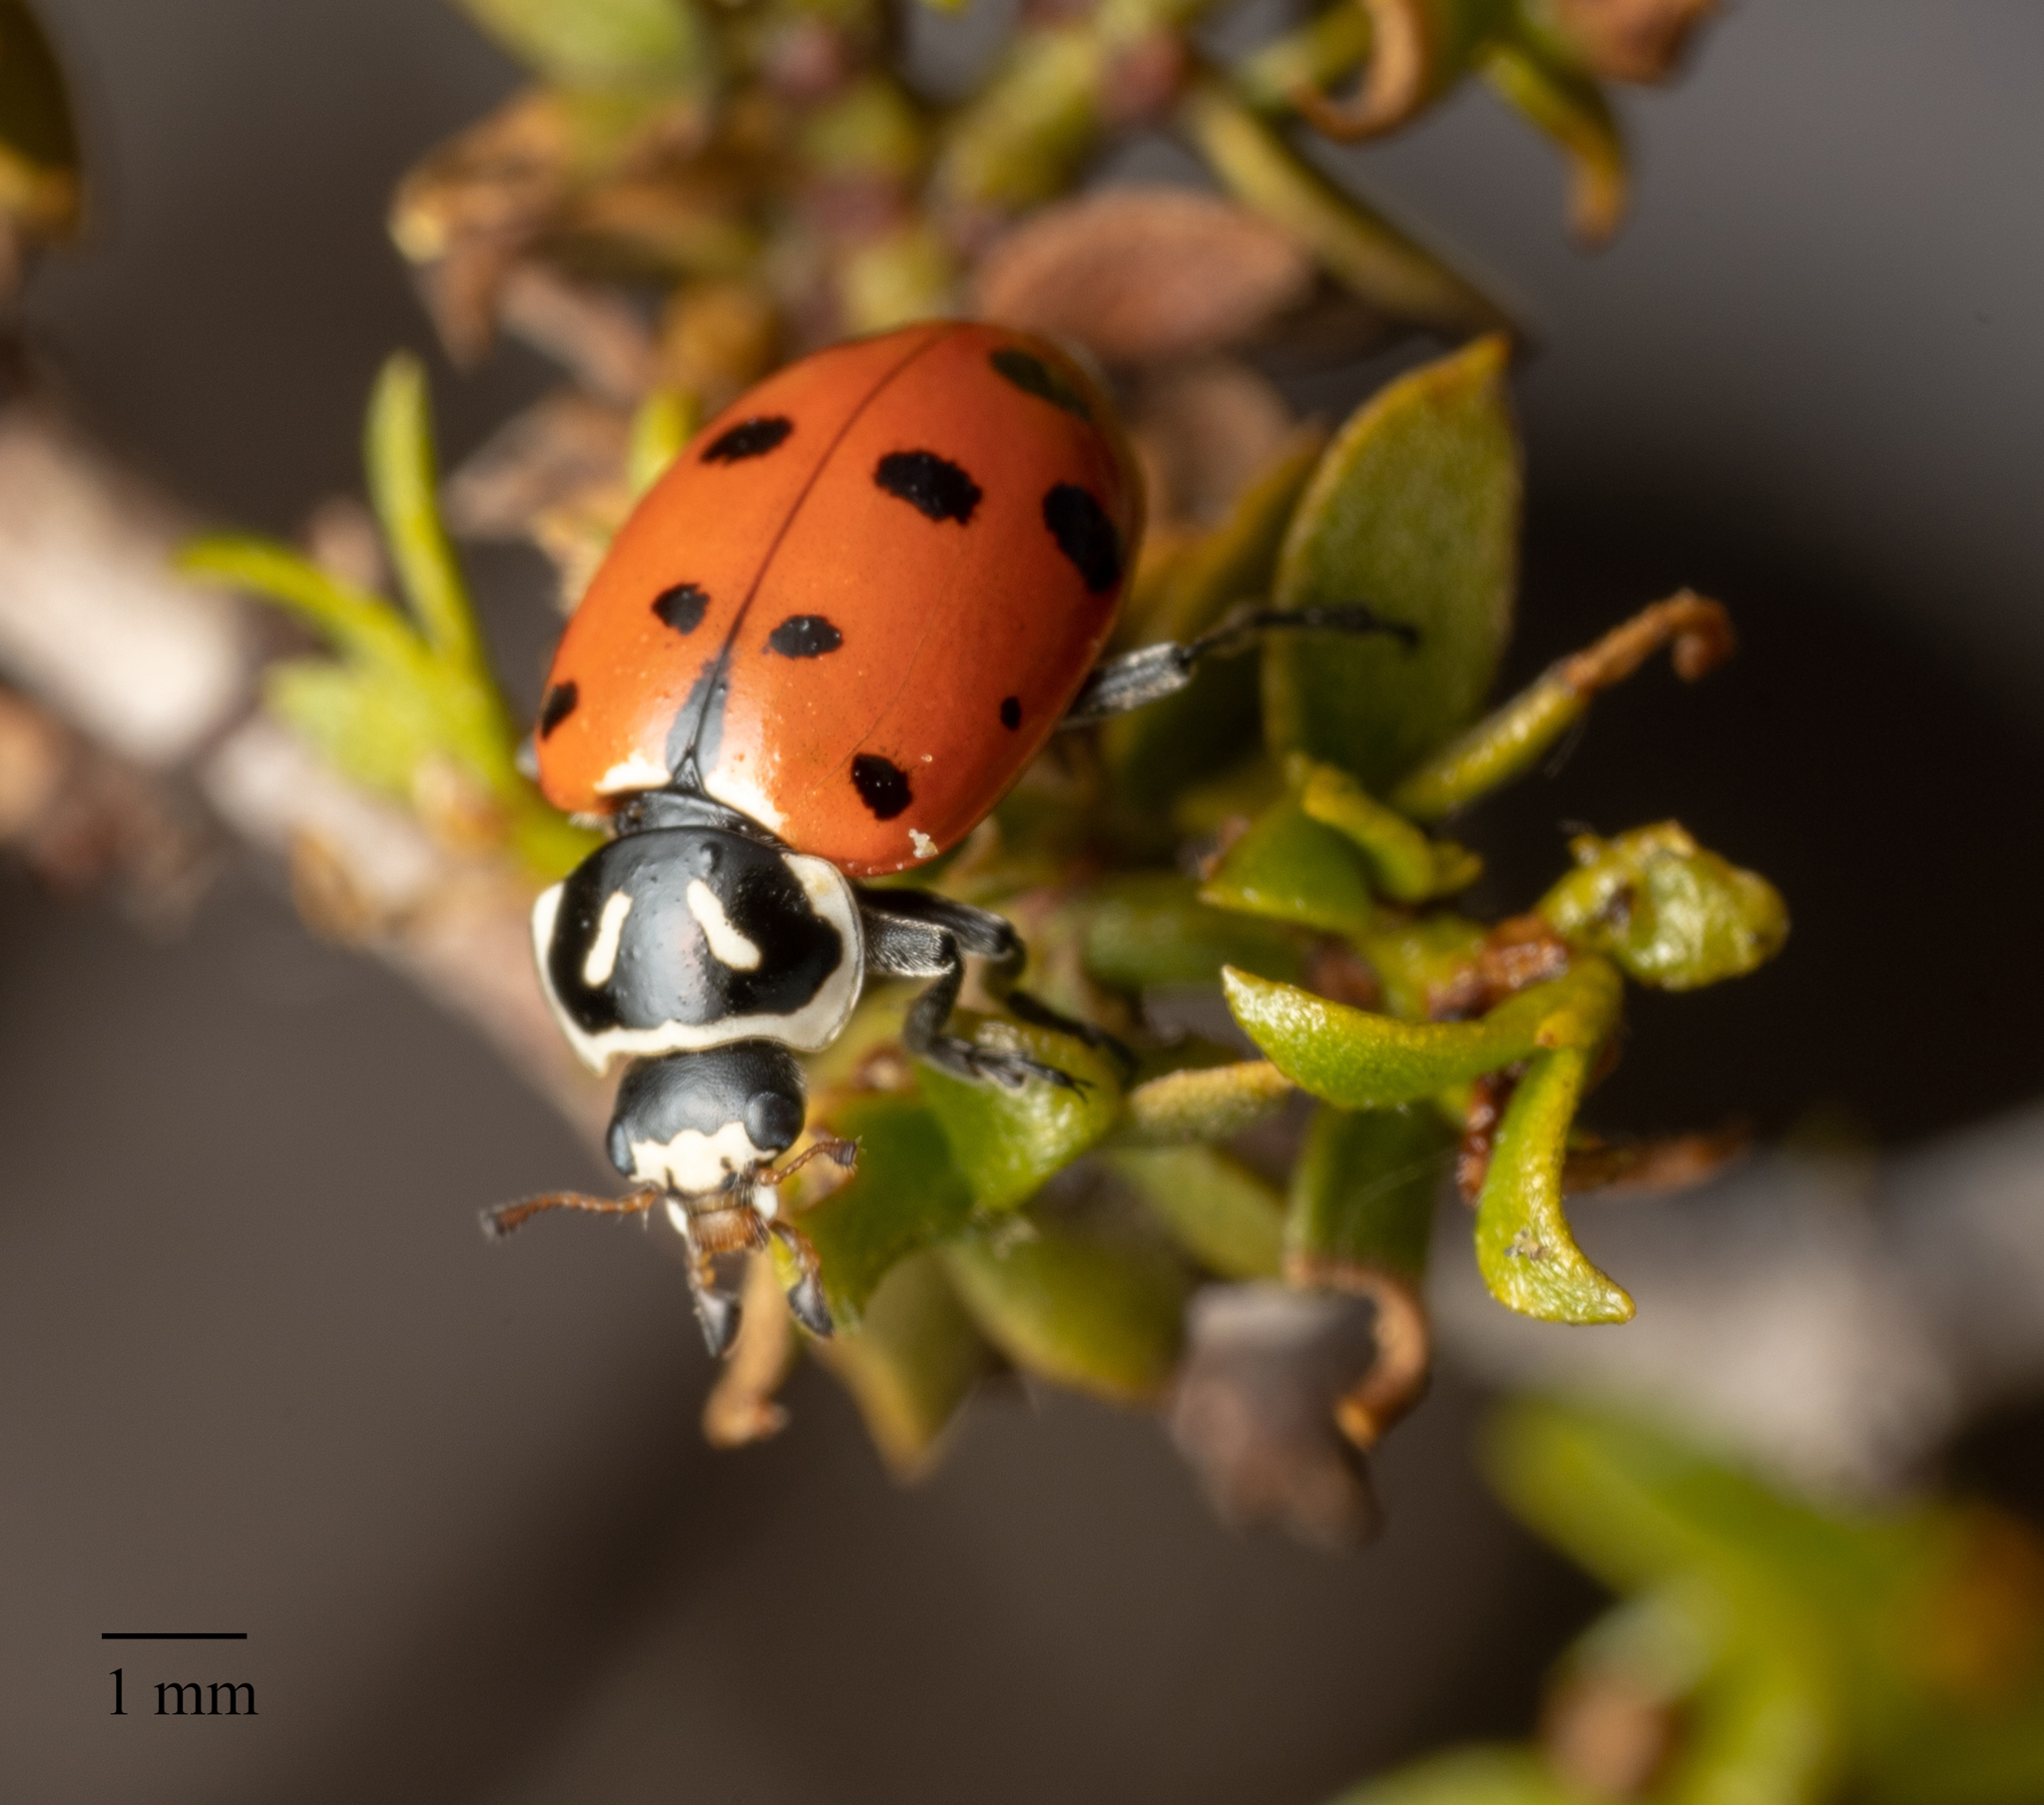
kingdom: Animalia
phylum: Arthropoda
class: Insecta
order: Coleoptera
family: Coccinellidae
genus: Hippodamia
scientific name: Hippodamia convergens
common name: Convergent lady beetle
